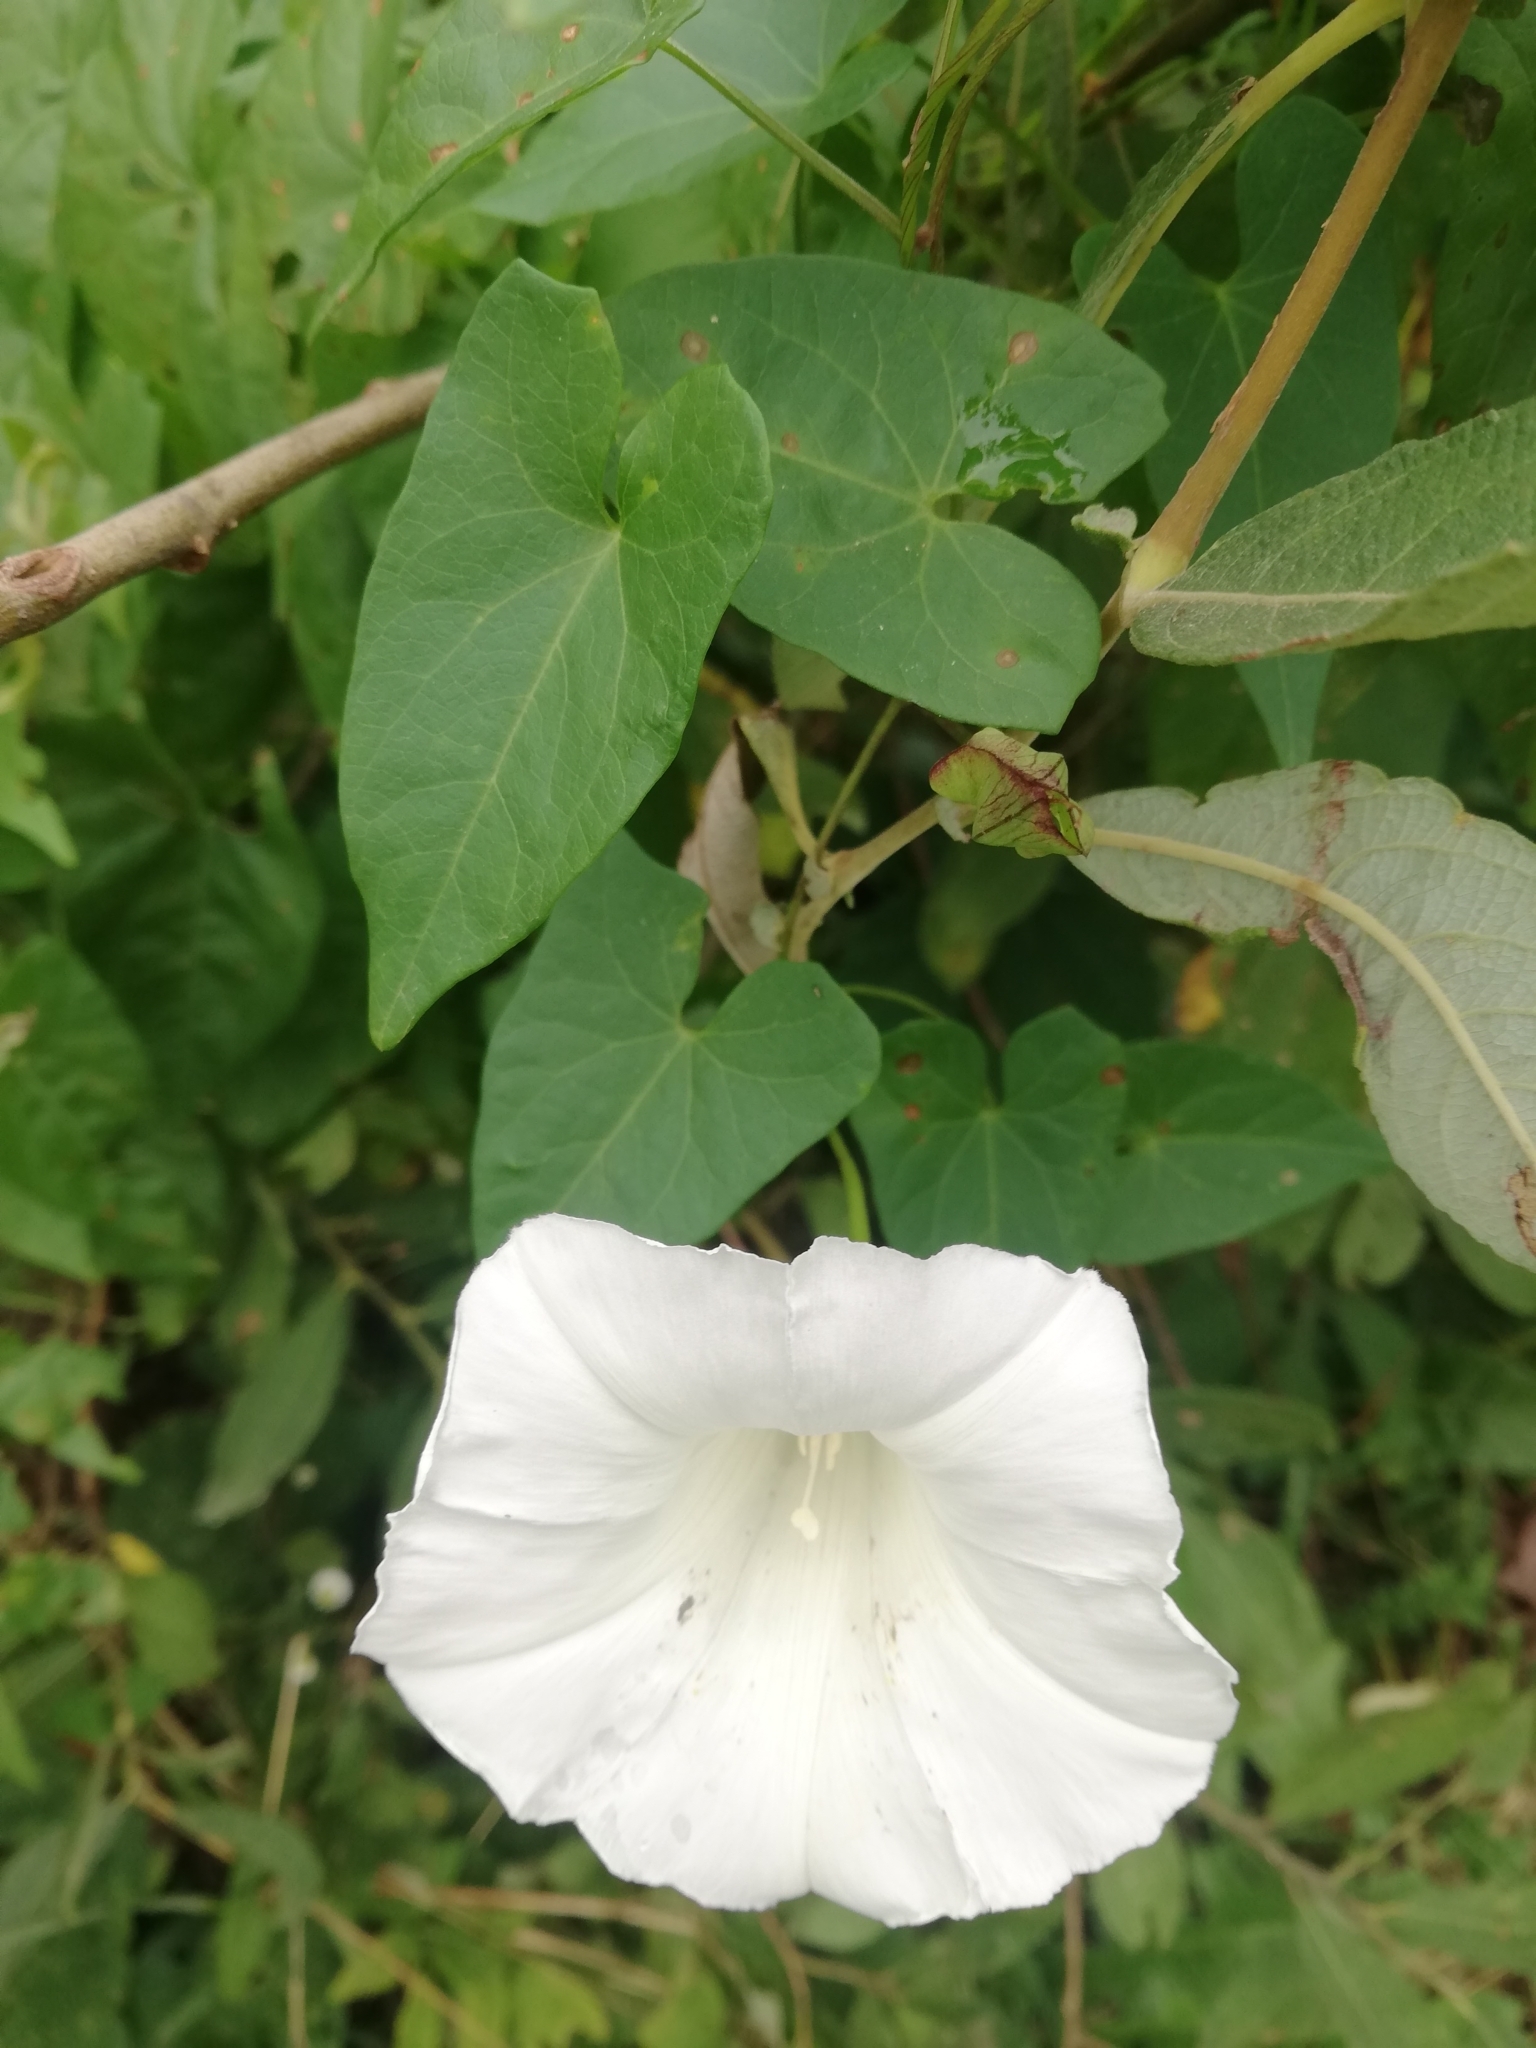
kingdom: Plantae
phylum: Tracheophyta
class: Magnoliopsida
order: Solanales
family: Convolvulaceae
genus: Calystegia
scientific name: Calystegia sepium
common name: Hedge bindweed
